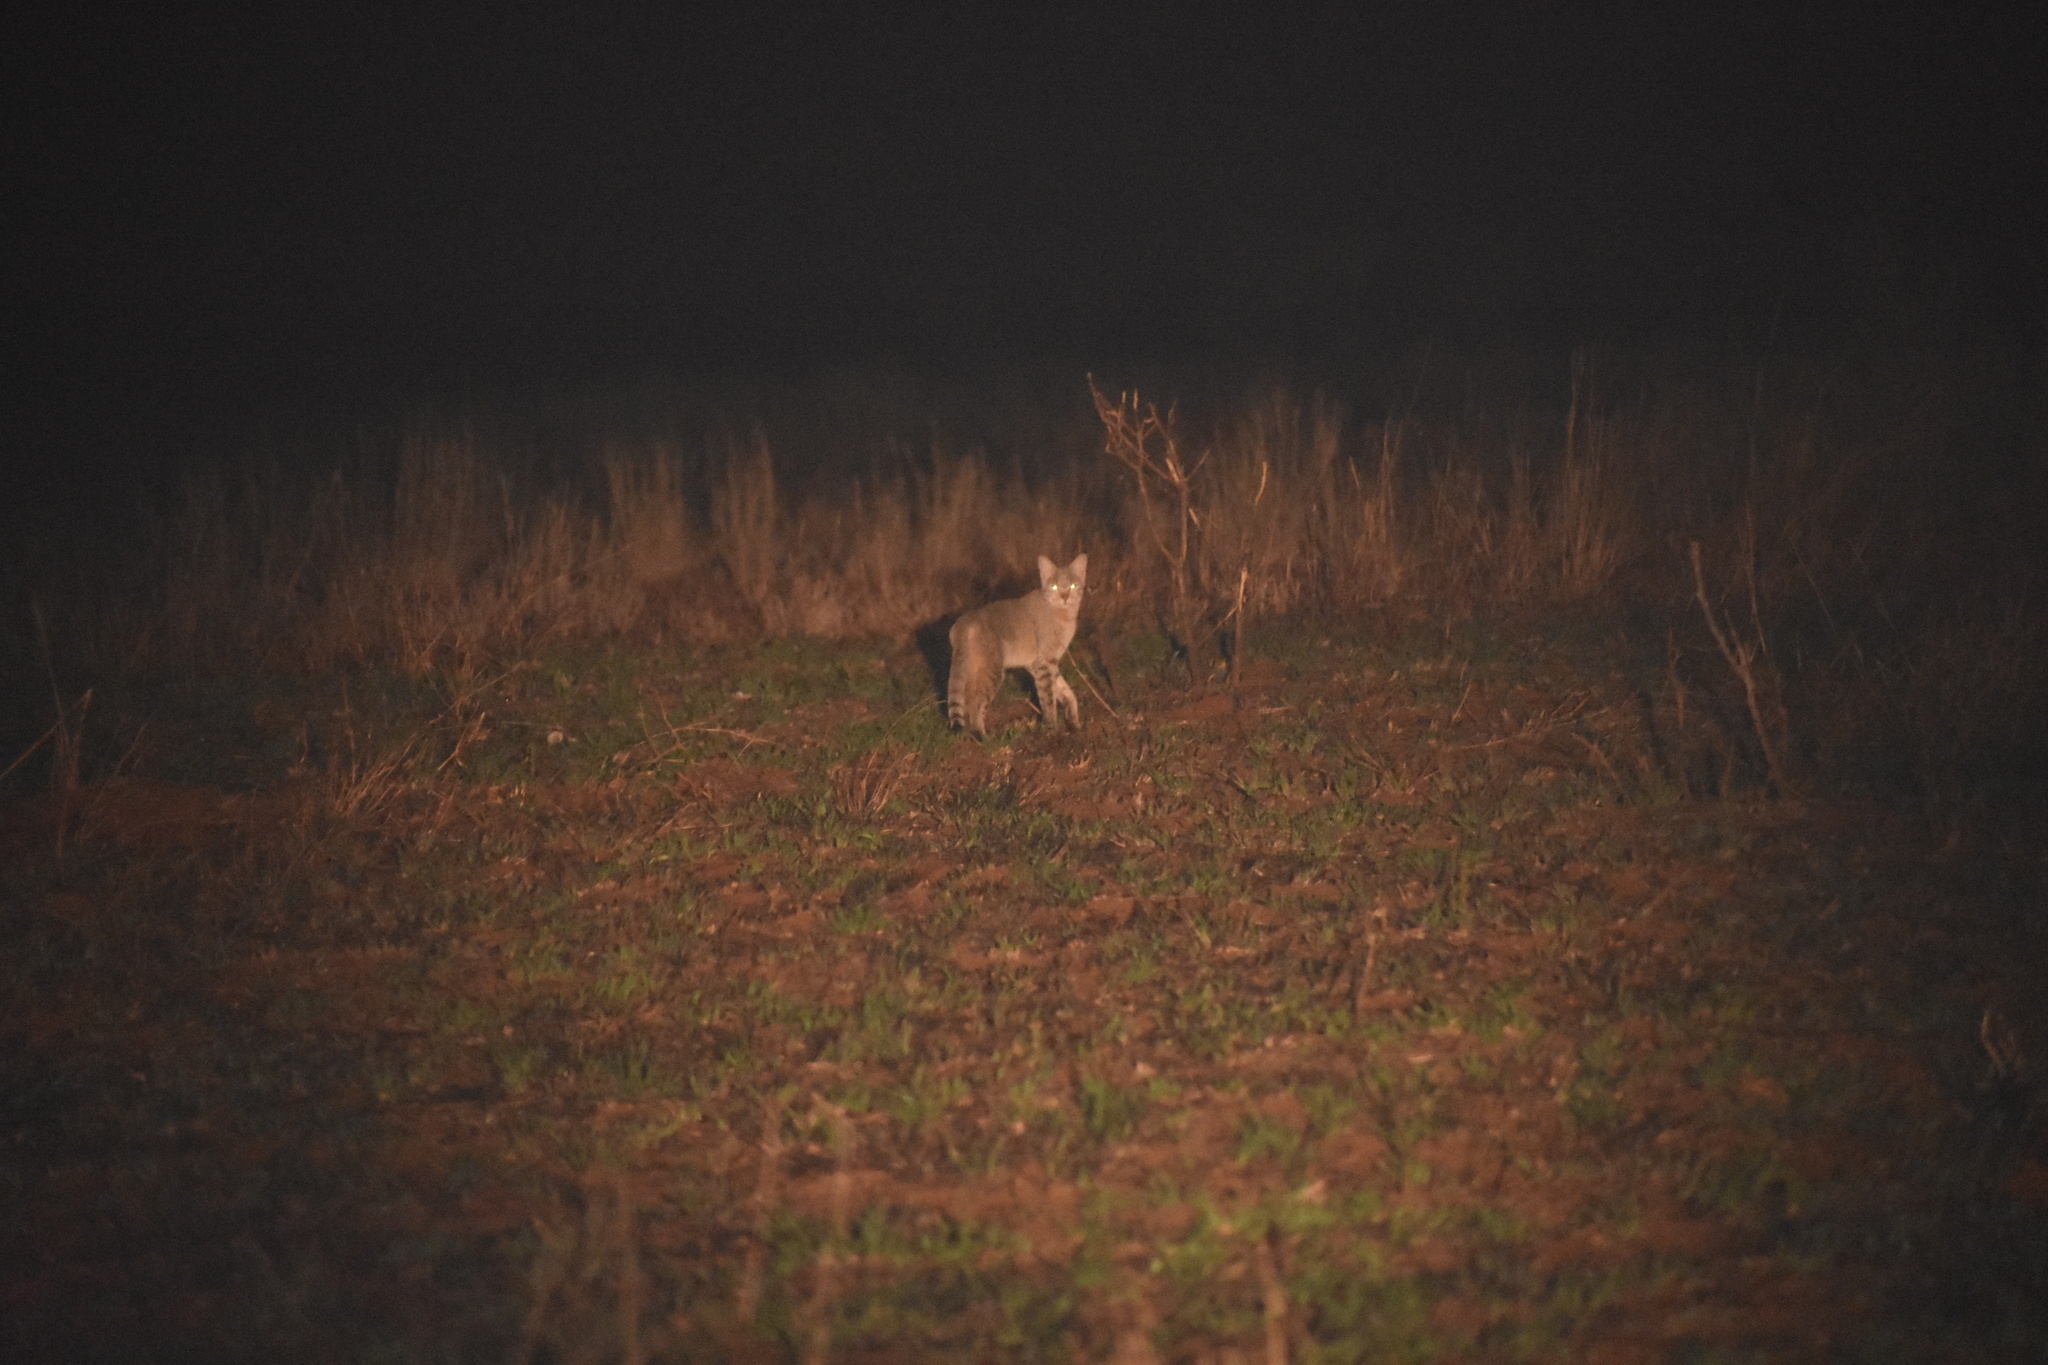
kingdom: Animalia
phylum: Chordata
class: Mammalia
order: Carnivora
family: Felidae
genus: Felis
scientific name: Felis silvestris
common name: Wildcat
